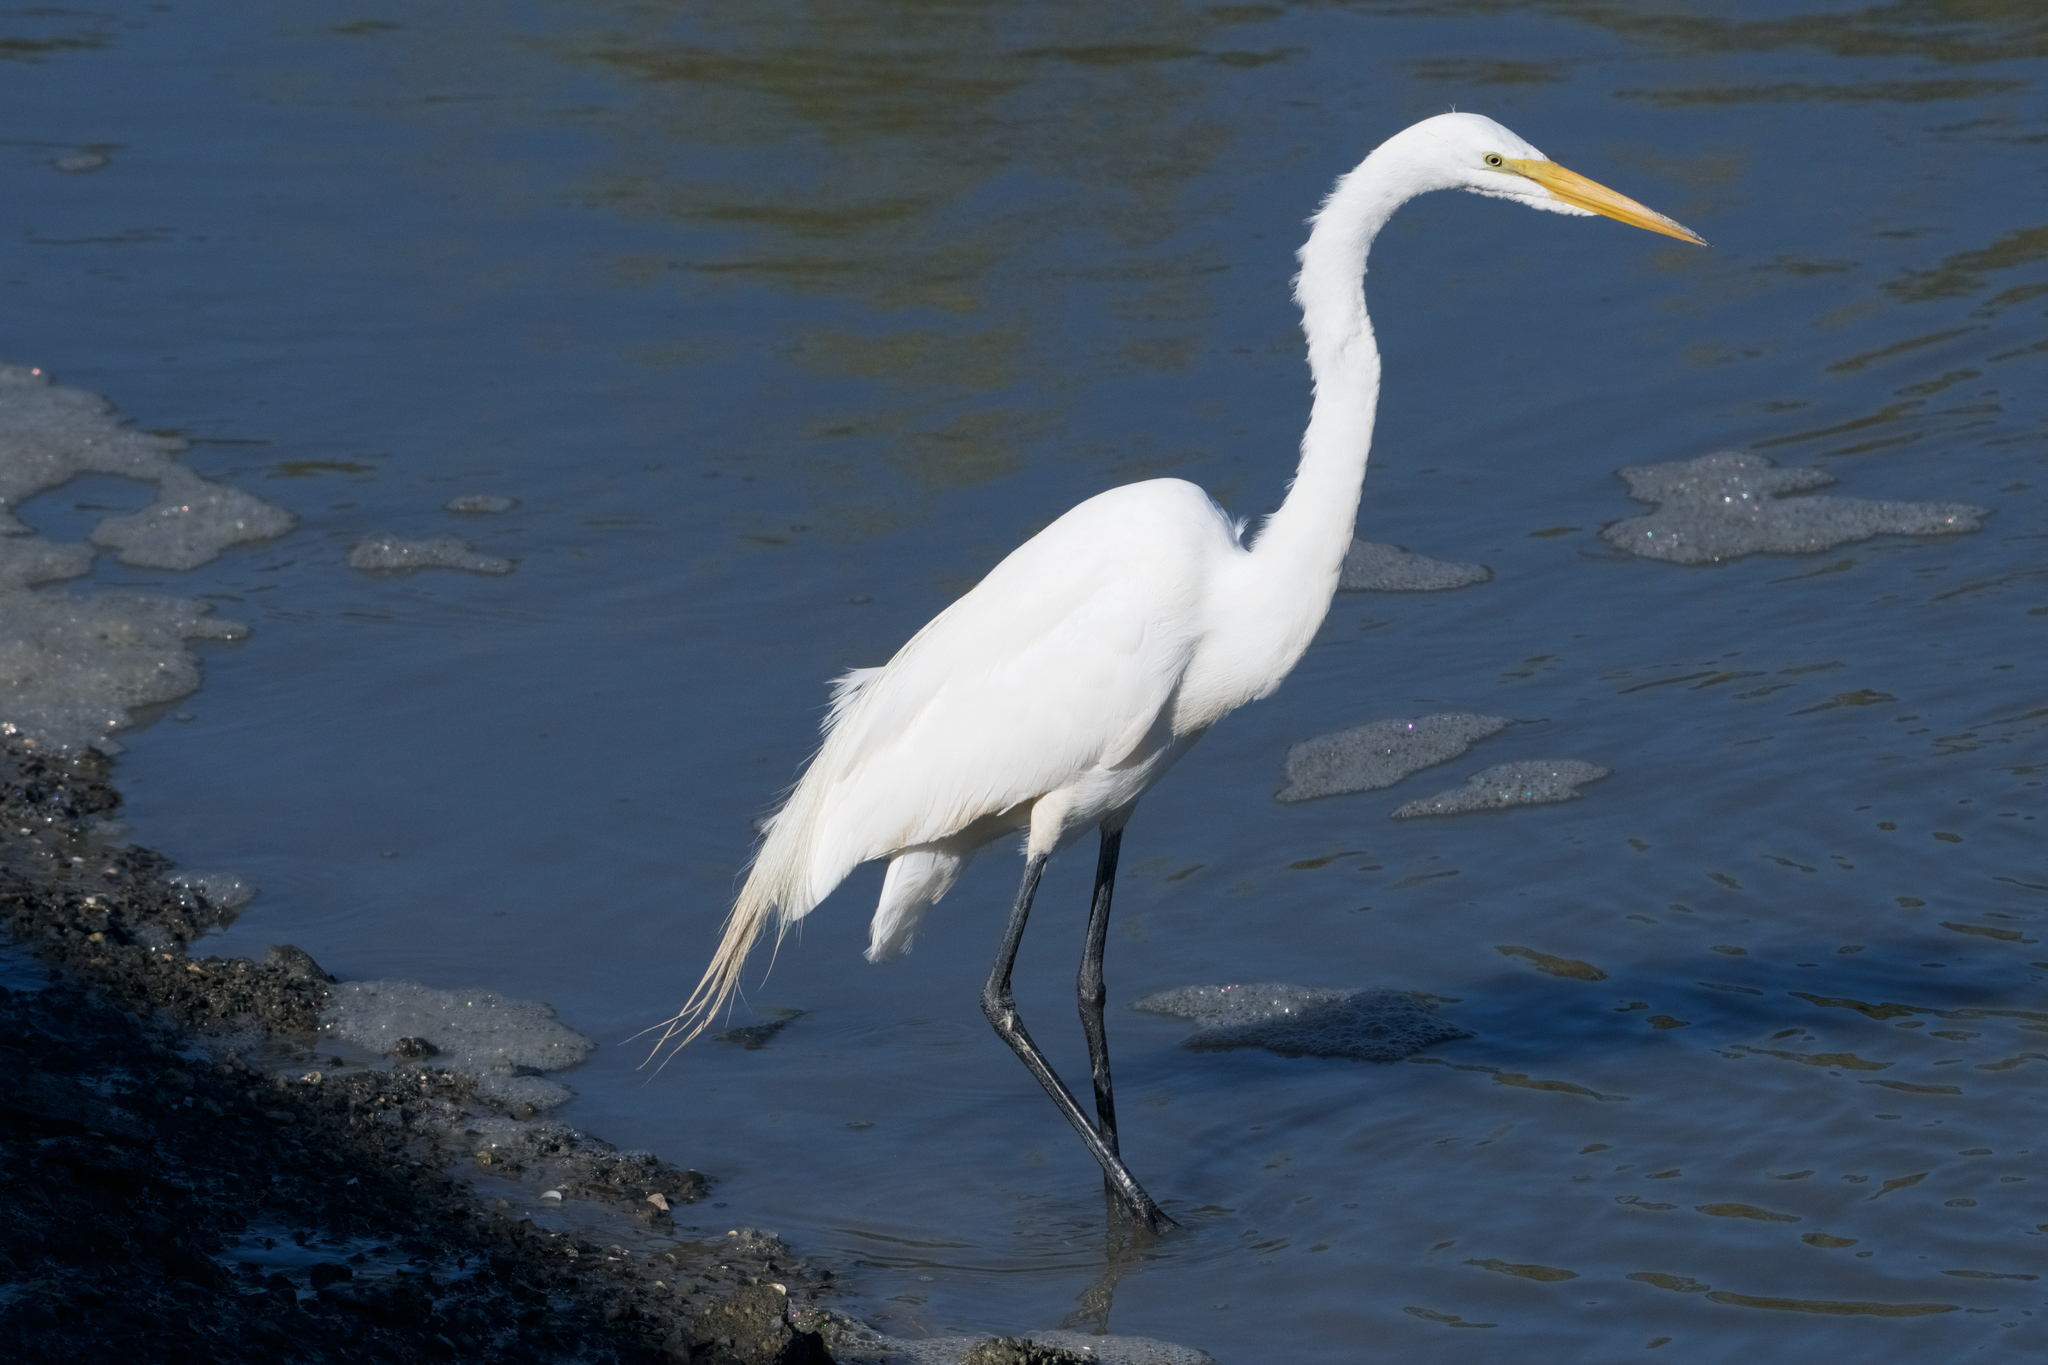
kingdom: Animalia
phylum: Chordata
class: Aves
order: Pelecaniformes
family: Ardeidae
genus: Ardea
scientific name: Ardea alba
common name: Great egret
